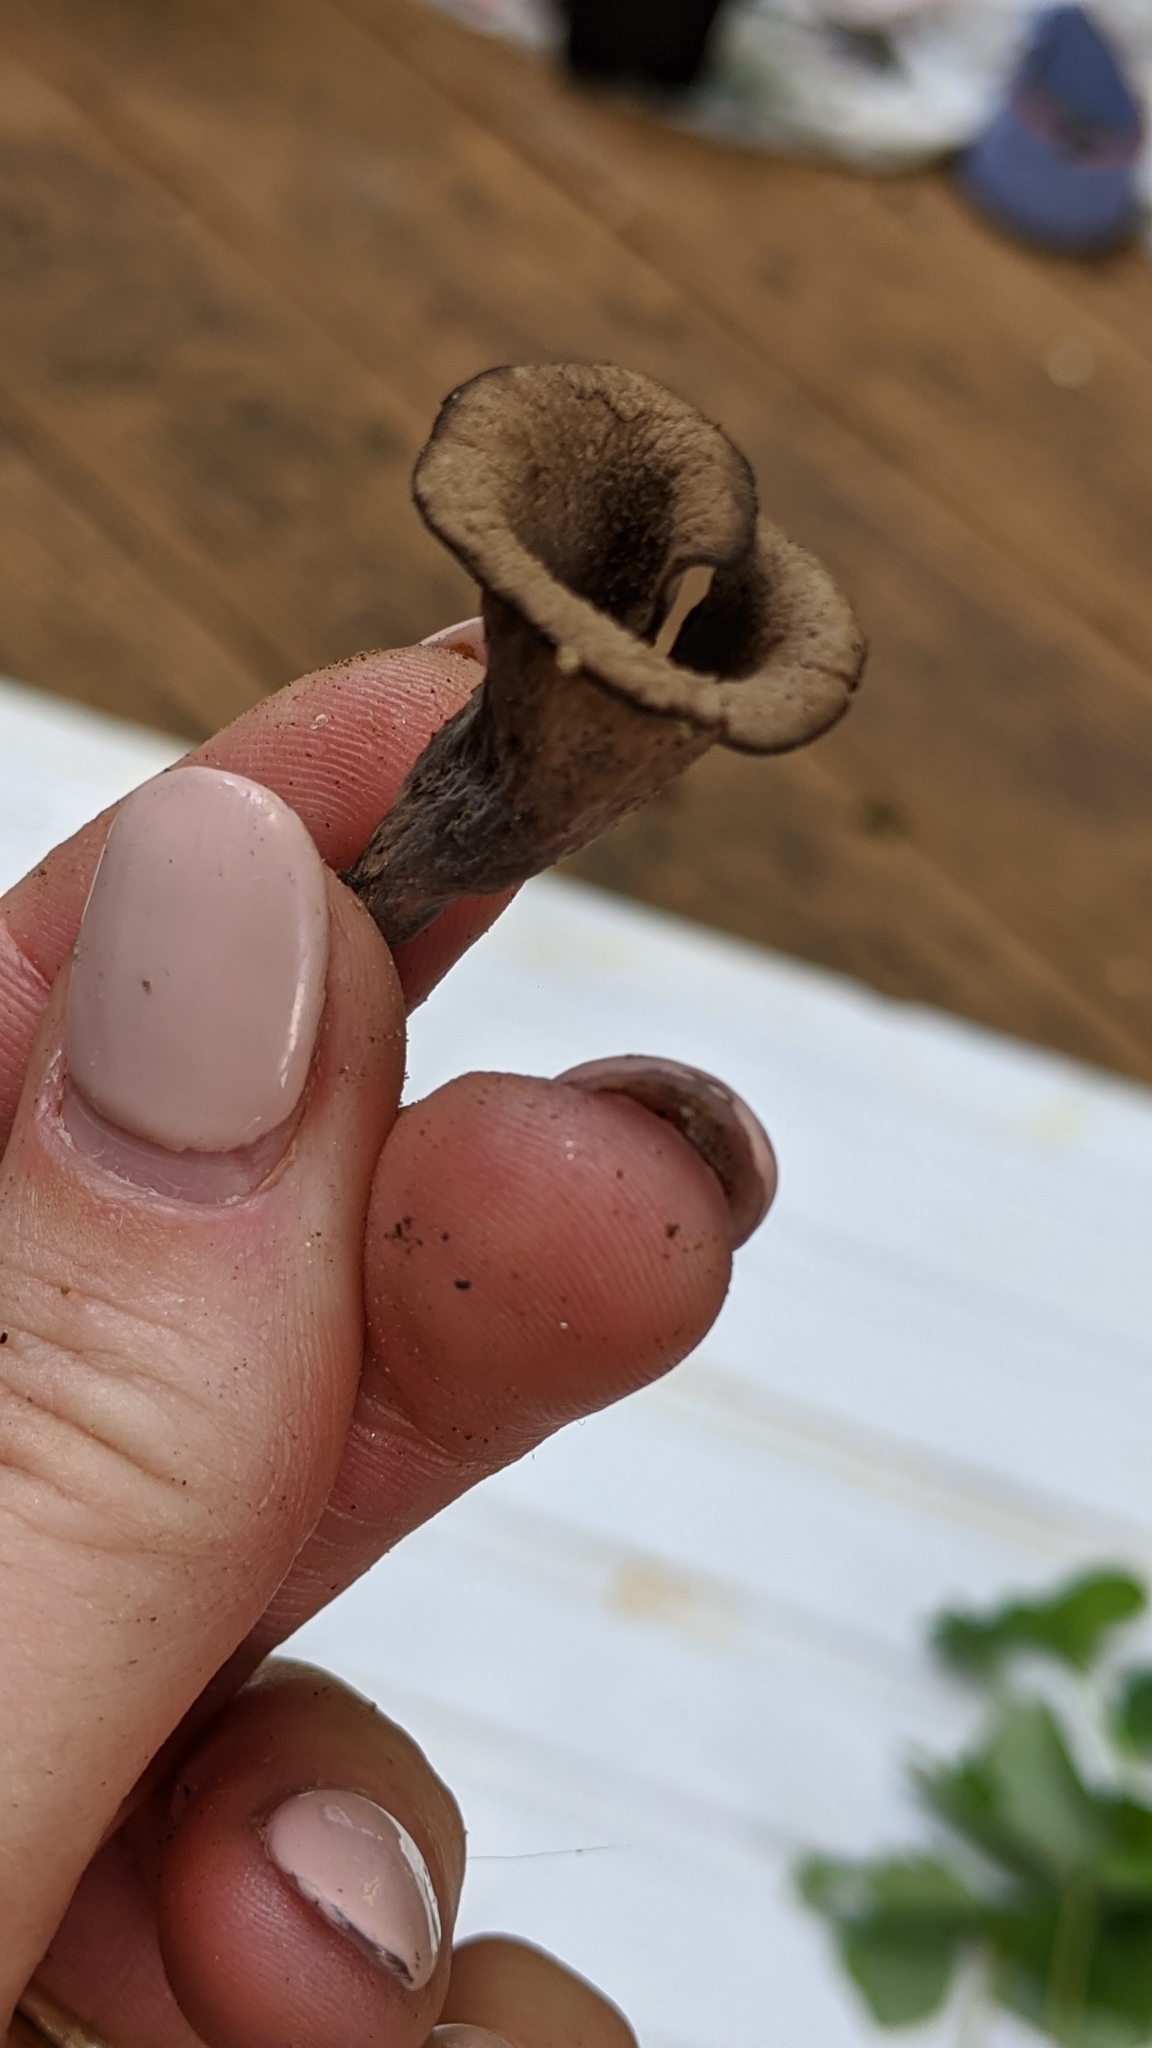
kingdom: Fungi
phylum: Basidiomycota
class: Agaricomycetes
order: Cantharellales
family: Hydnaceae
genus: Craterellus
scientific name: Craterellus cornucopioides
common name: Horn of plenty
